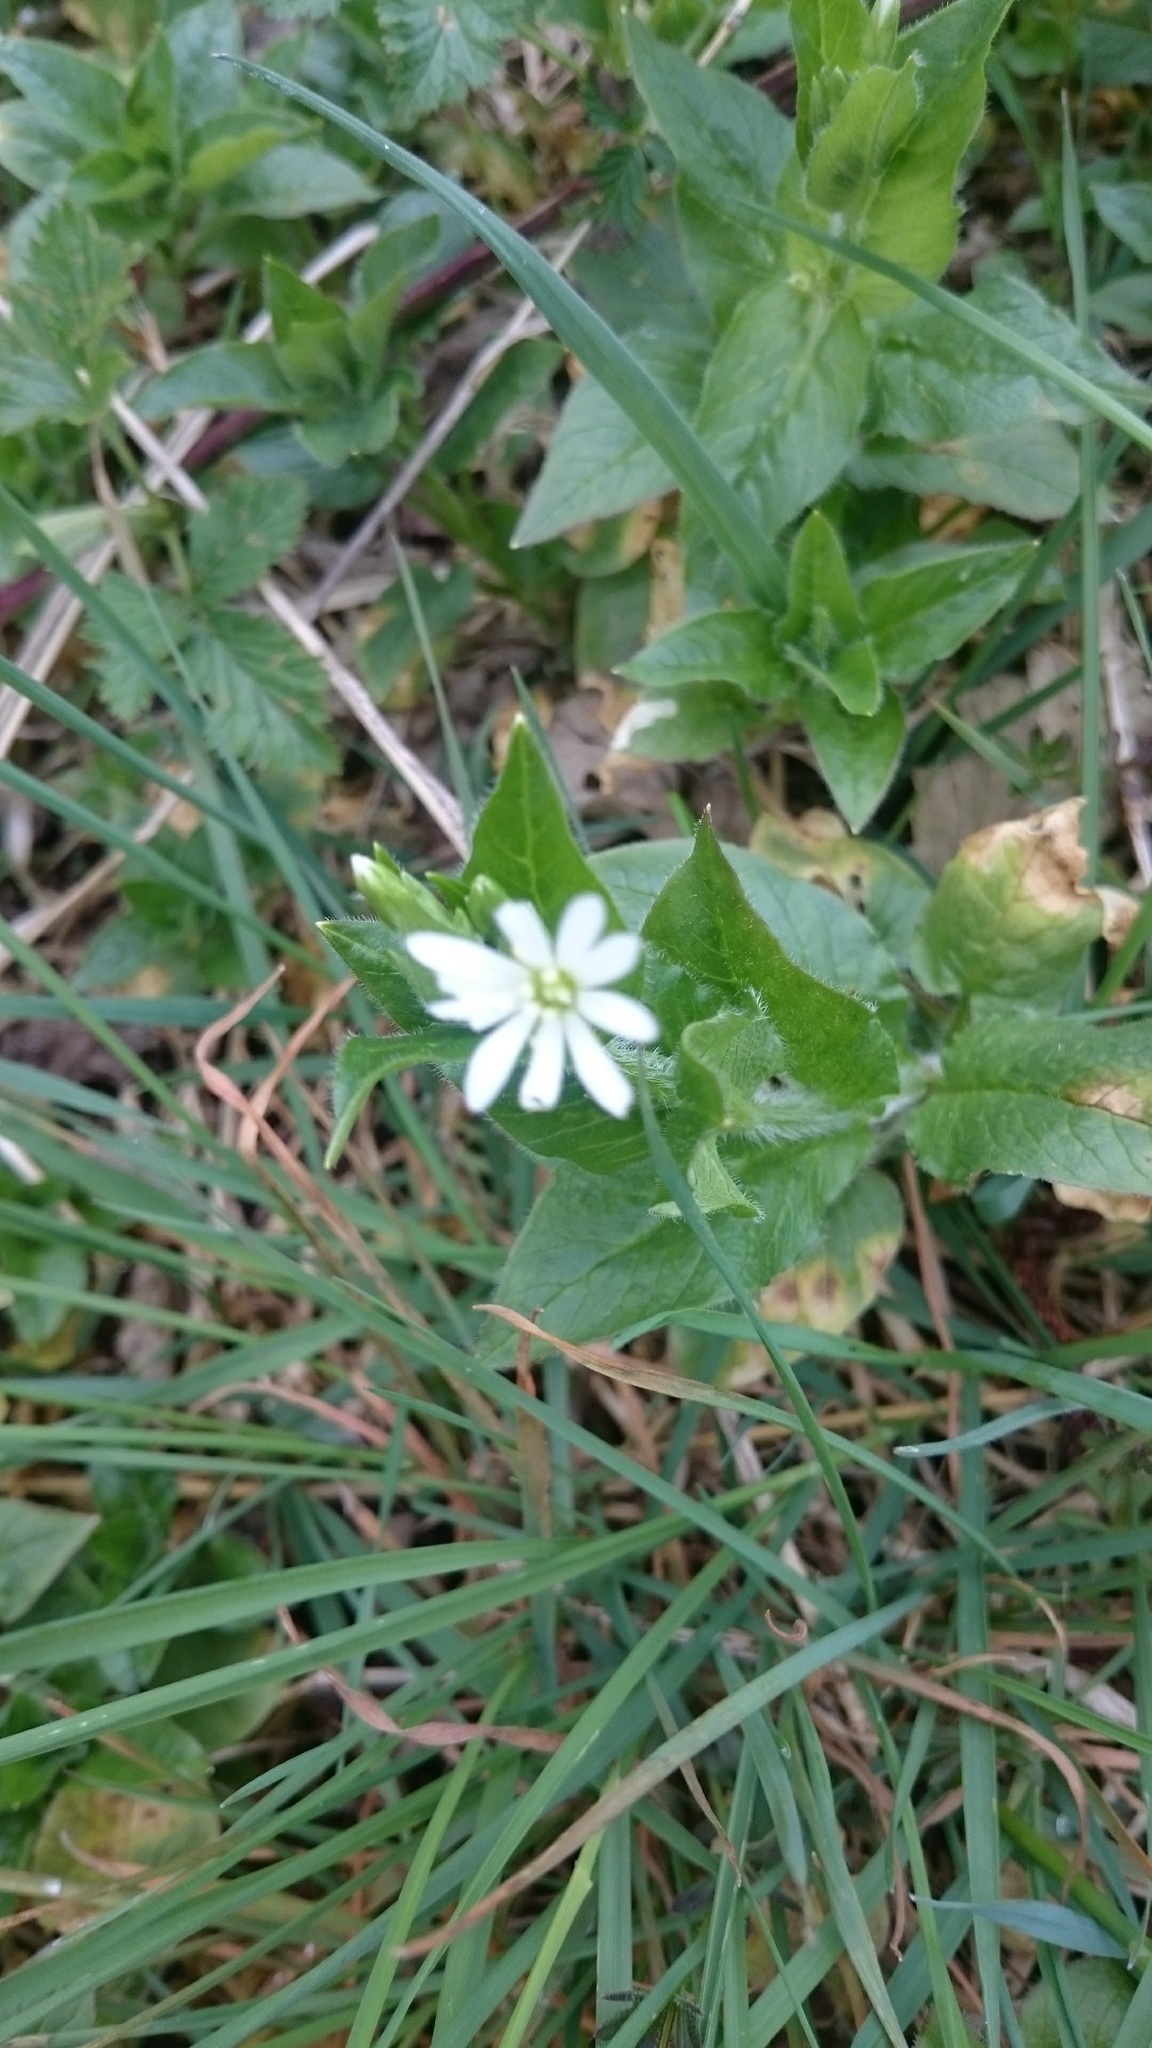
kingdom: Plantae
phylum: Tracheophyta
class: Magnoliopsida
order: Caryophyllales
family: Caryophyllaceae
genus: Stellaria
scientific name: Stellaria nemorum
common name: Wood stitchwort
